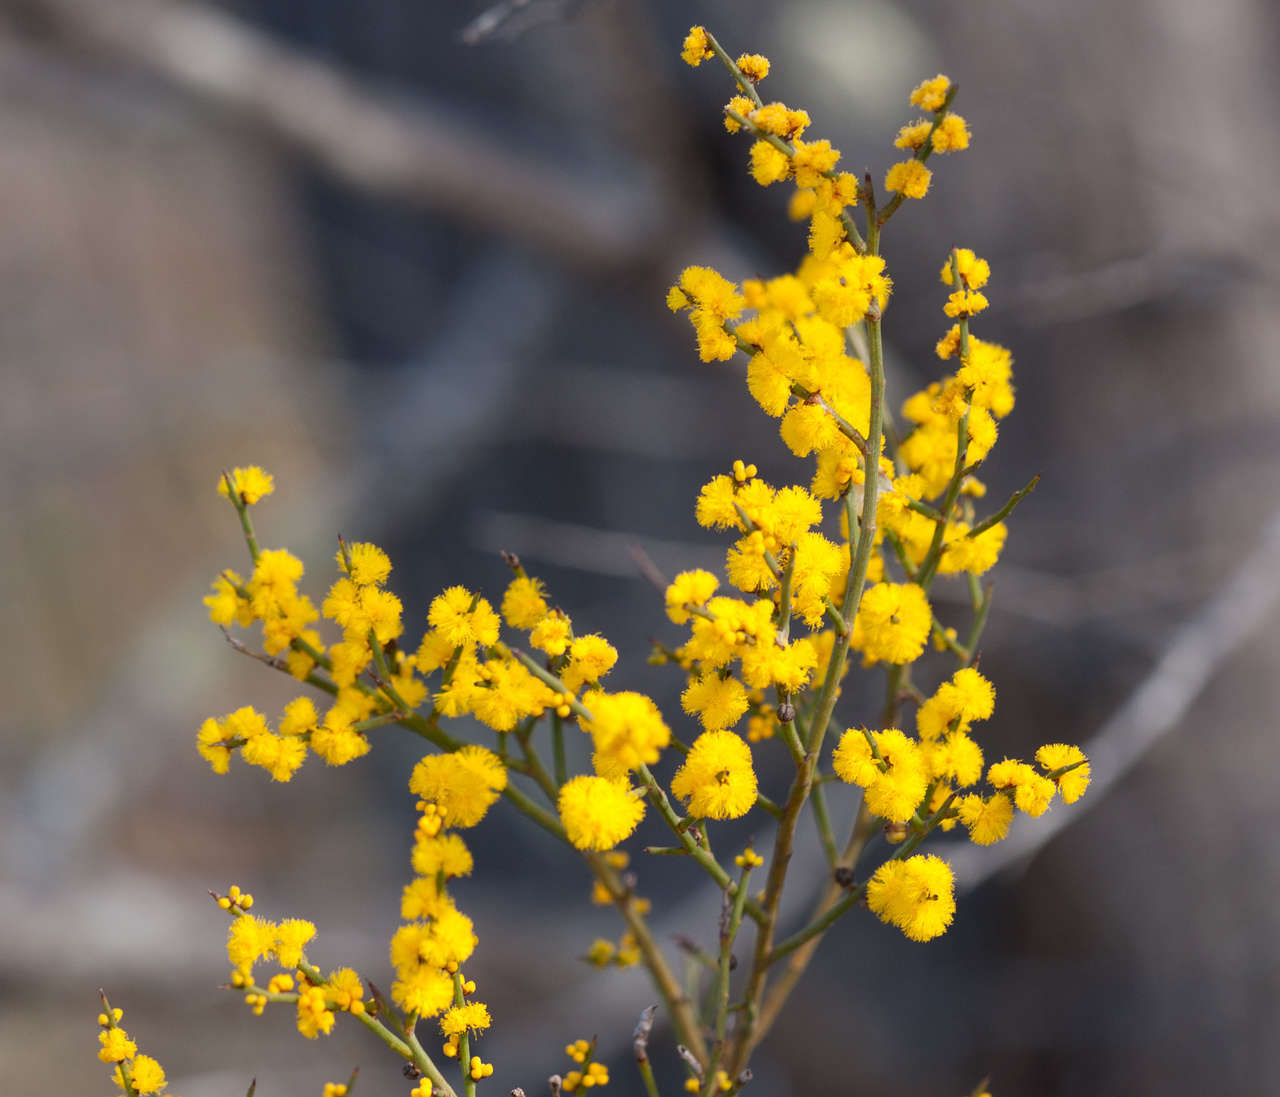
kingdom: Plantae
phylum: Tracheophyta
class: Magnoliopsida
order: Fabales
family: Fabaceae
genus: Acacia
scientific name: Acacia spinescens
